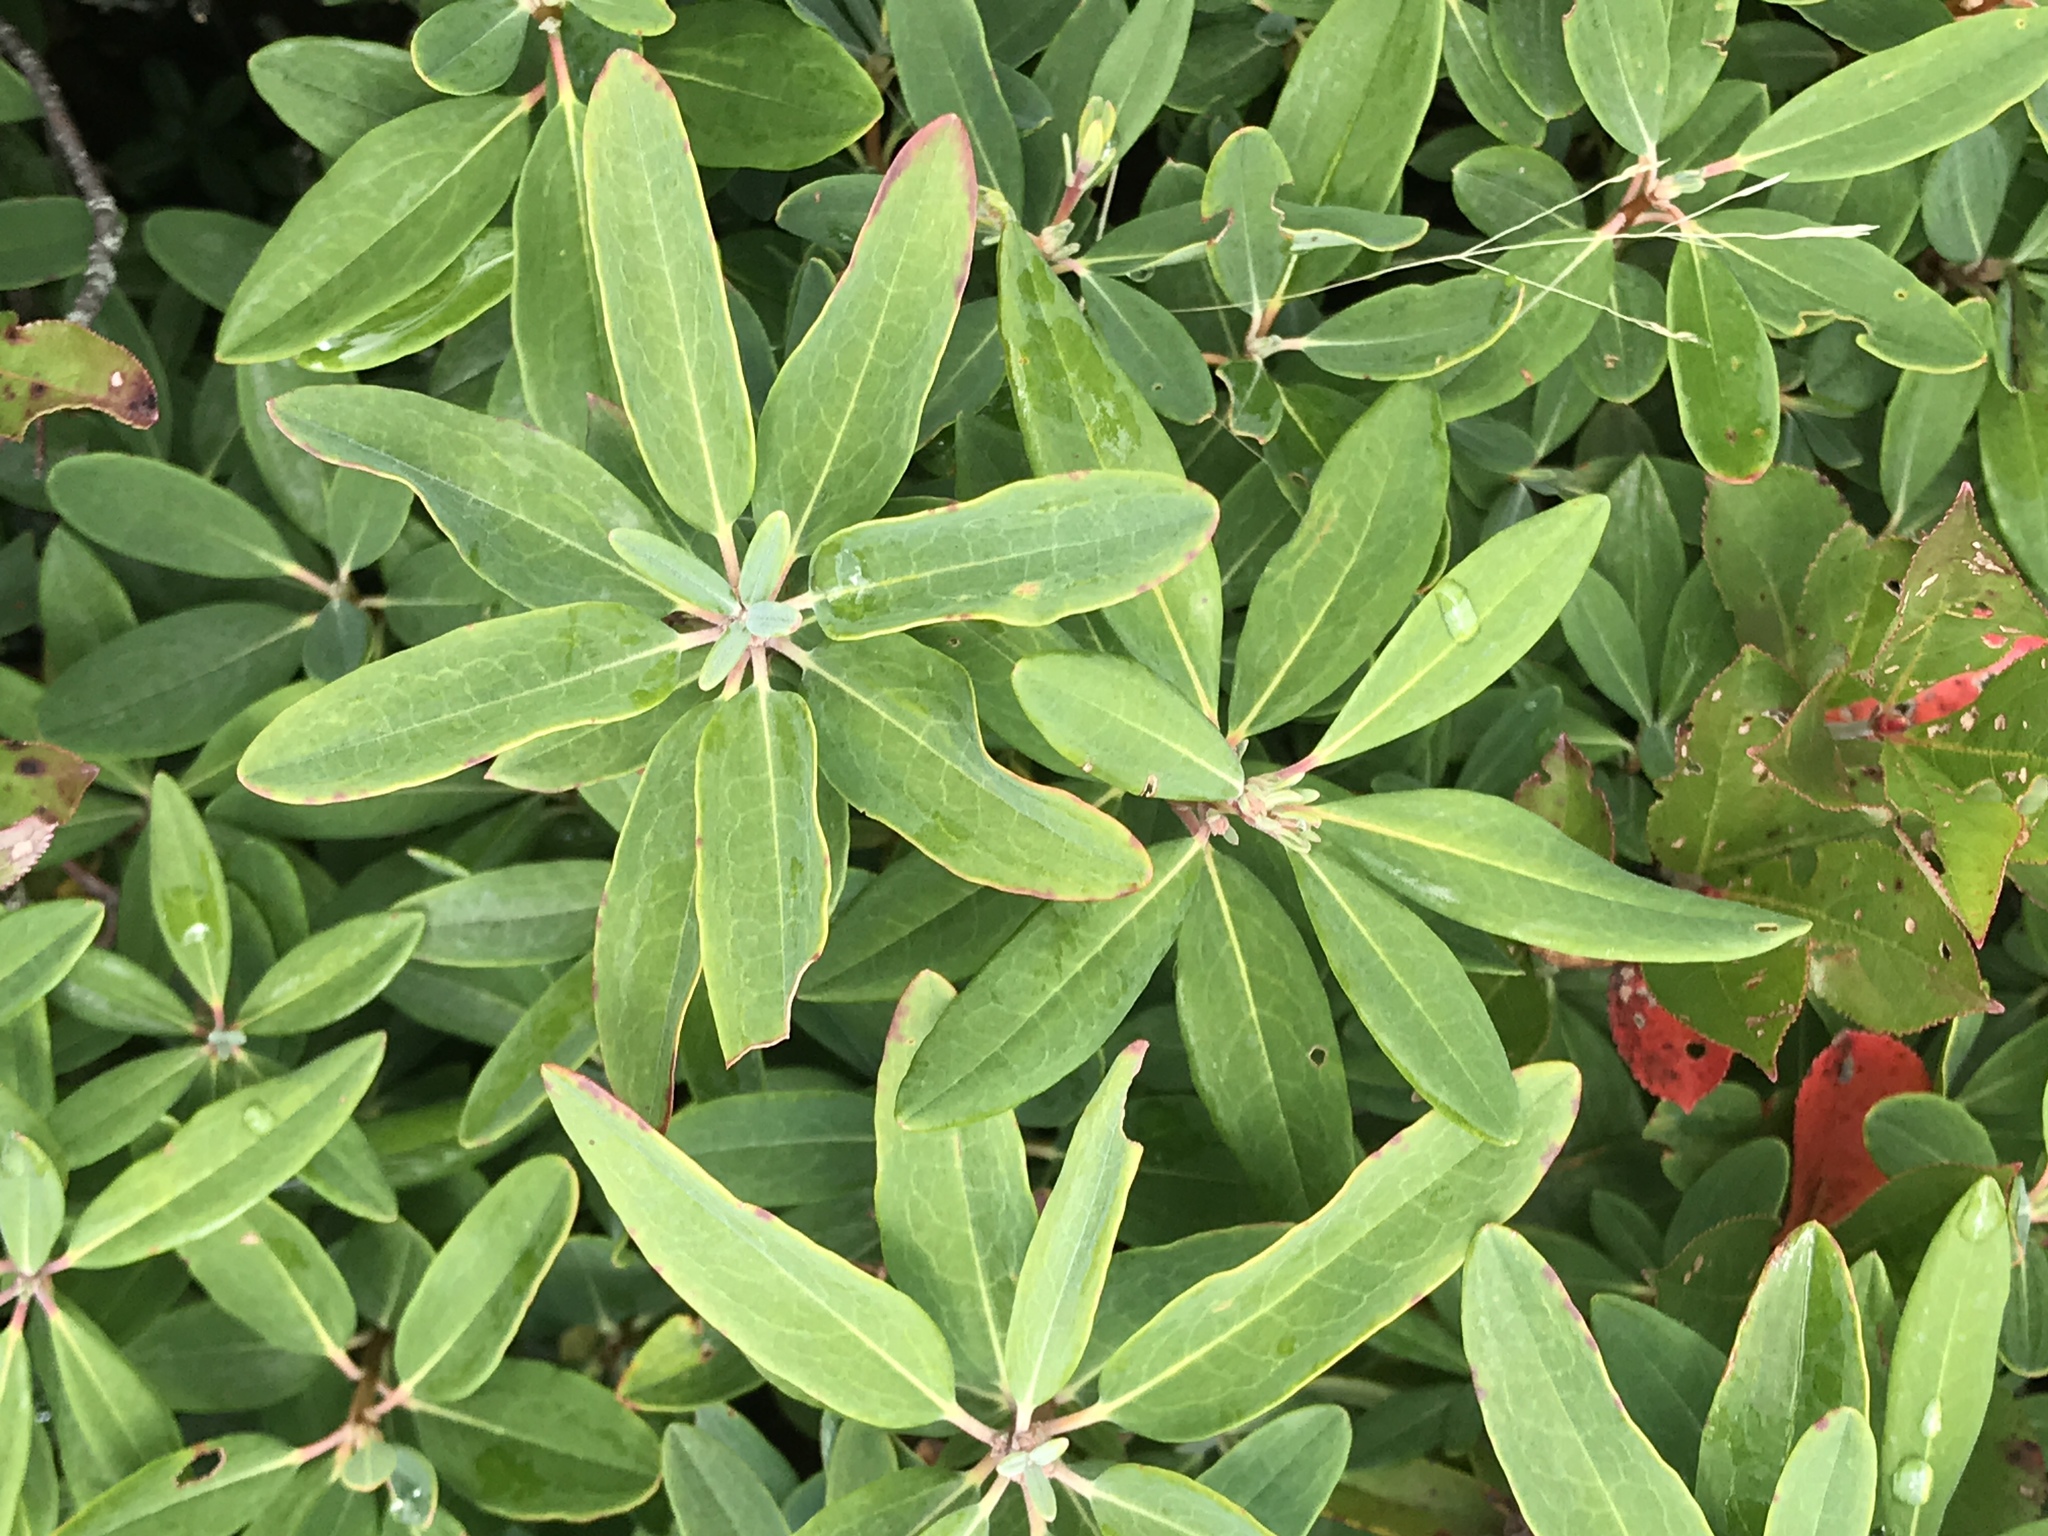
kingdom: Plantae
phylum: Tracheophyta
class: Magnoliopsida
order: Ericales
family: Ericaceae
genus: Kalmia
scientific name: Kalmia angustifolia
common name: Sheep-laurel
